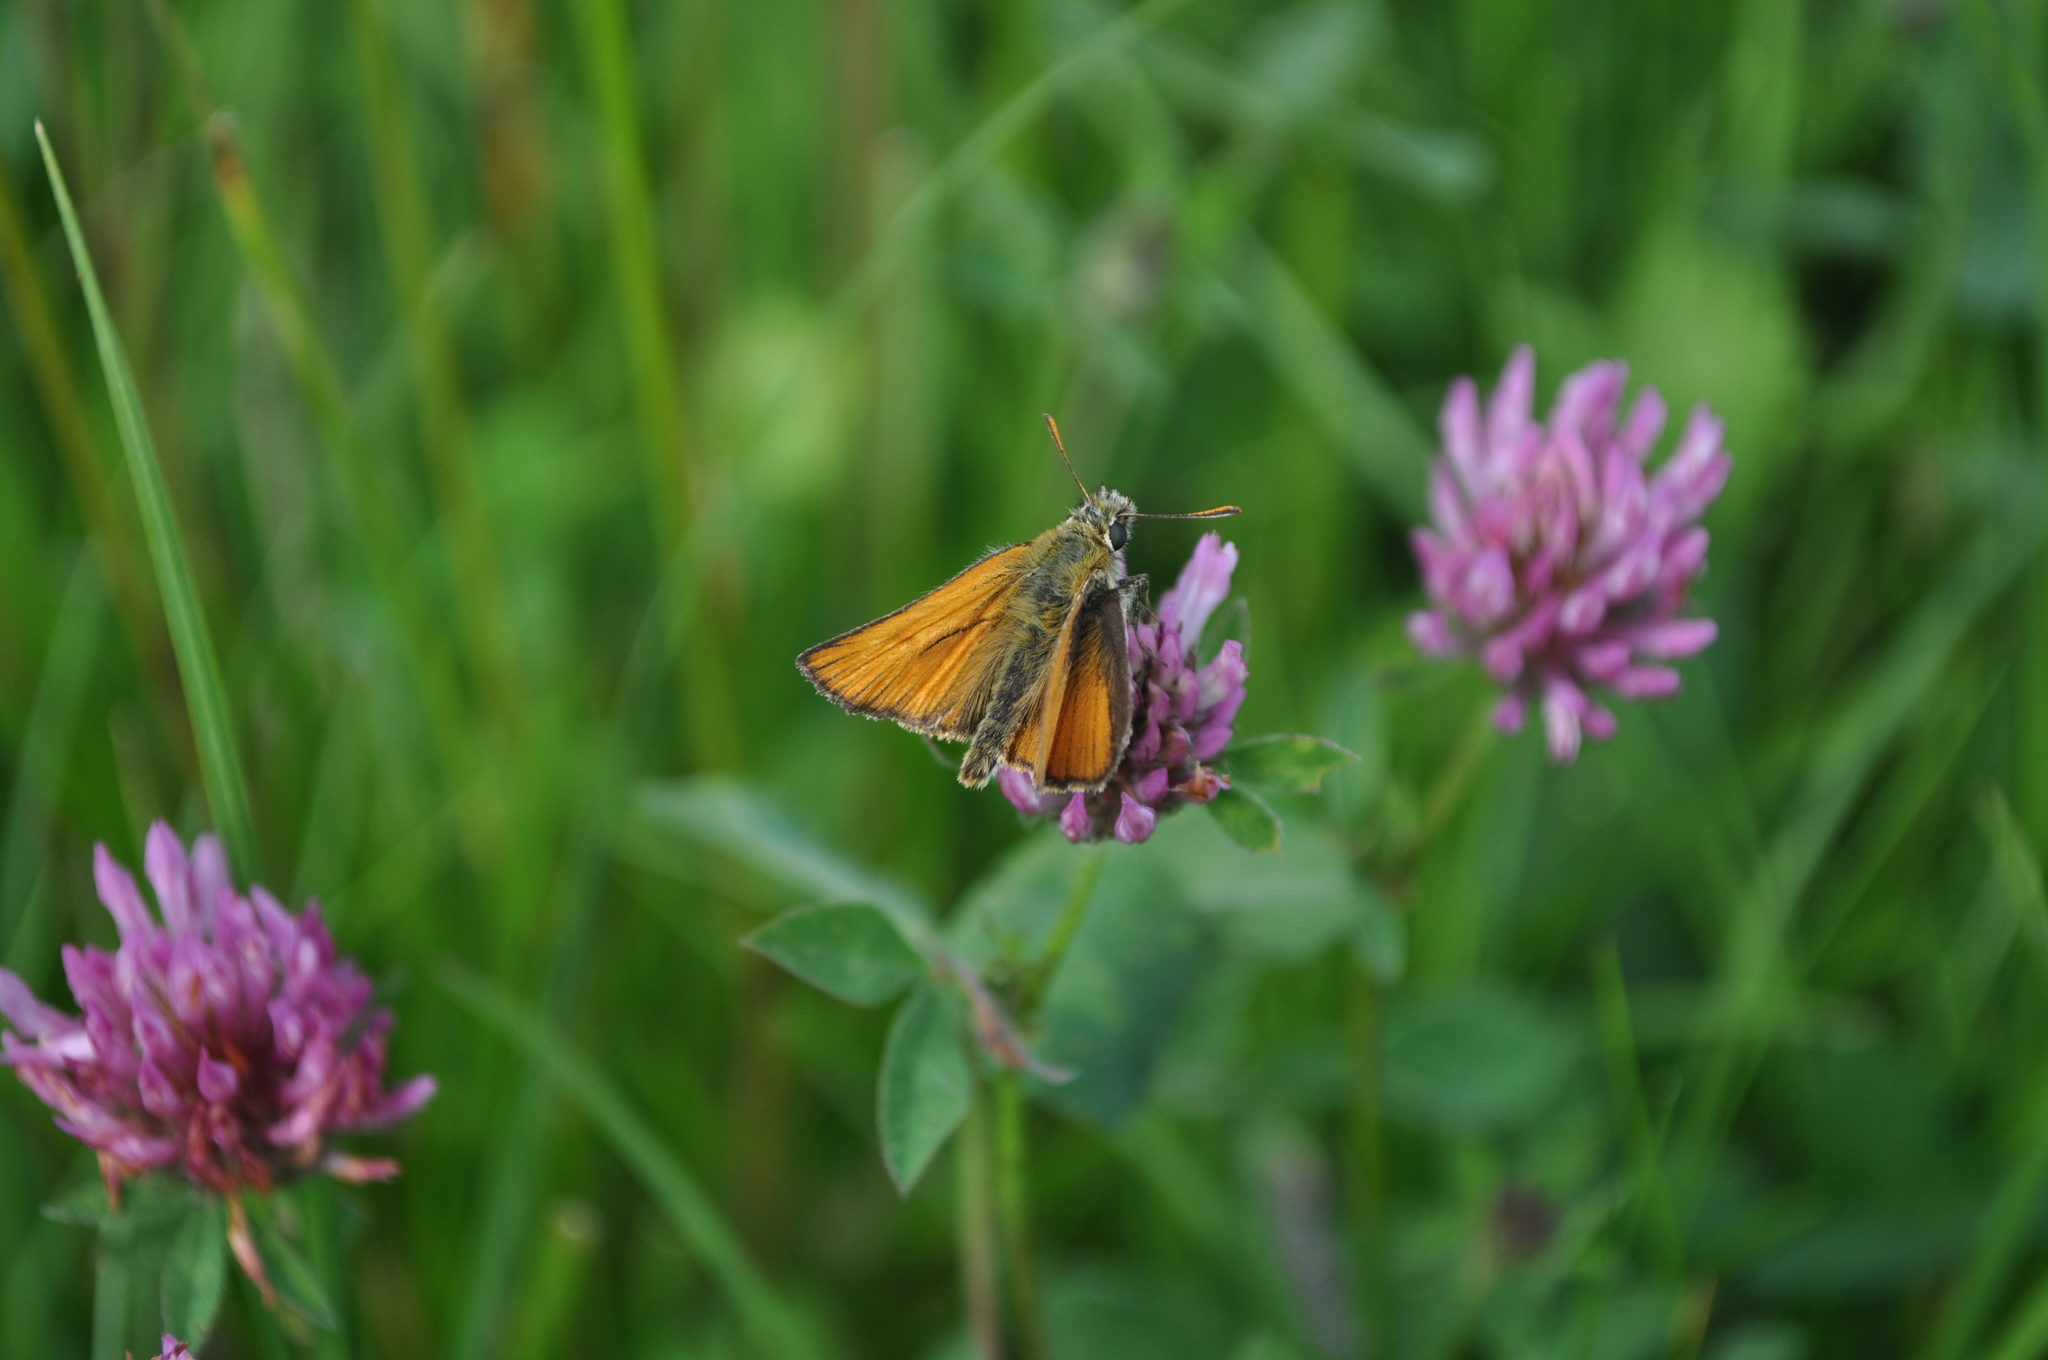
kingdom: Animalia
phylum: Arthropoda
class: Insecta
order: Lepidoptera
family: Hesperiidae
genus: Thymelicus
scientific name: Thymelicus sylvestris
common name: Small skipper
